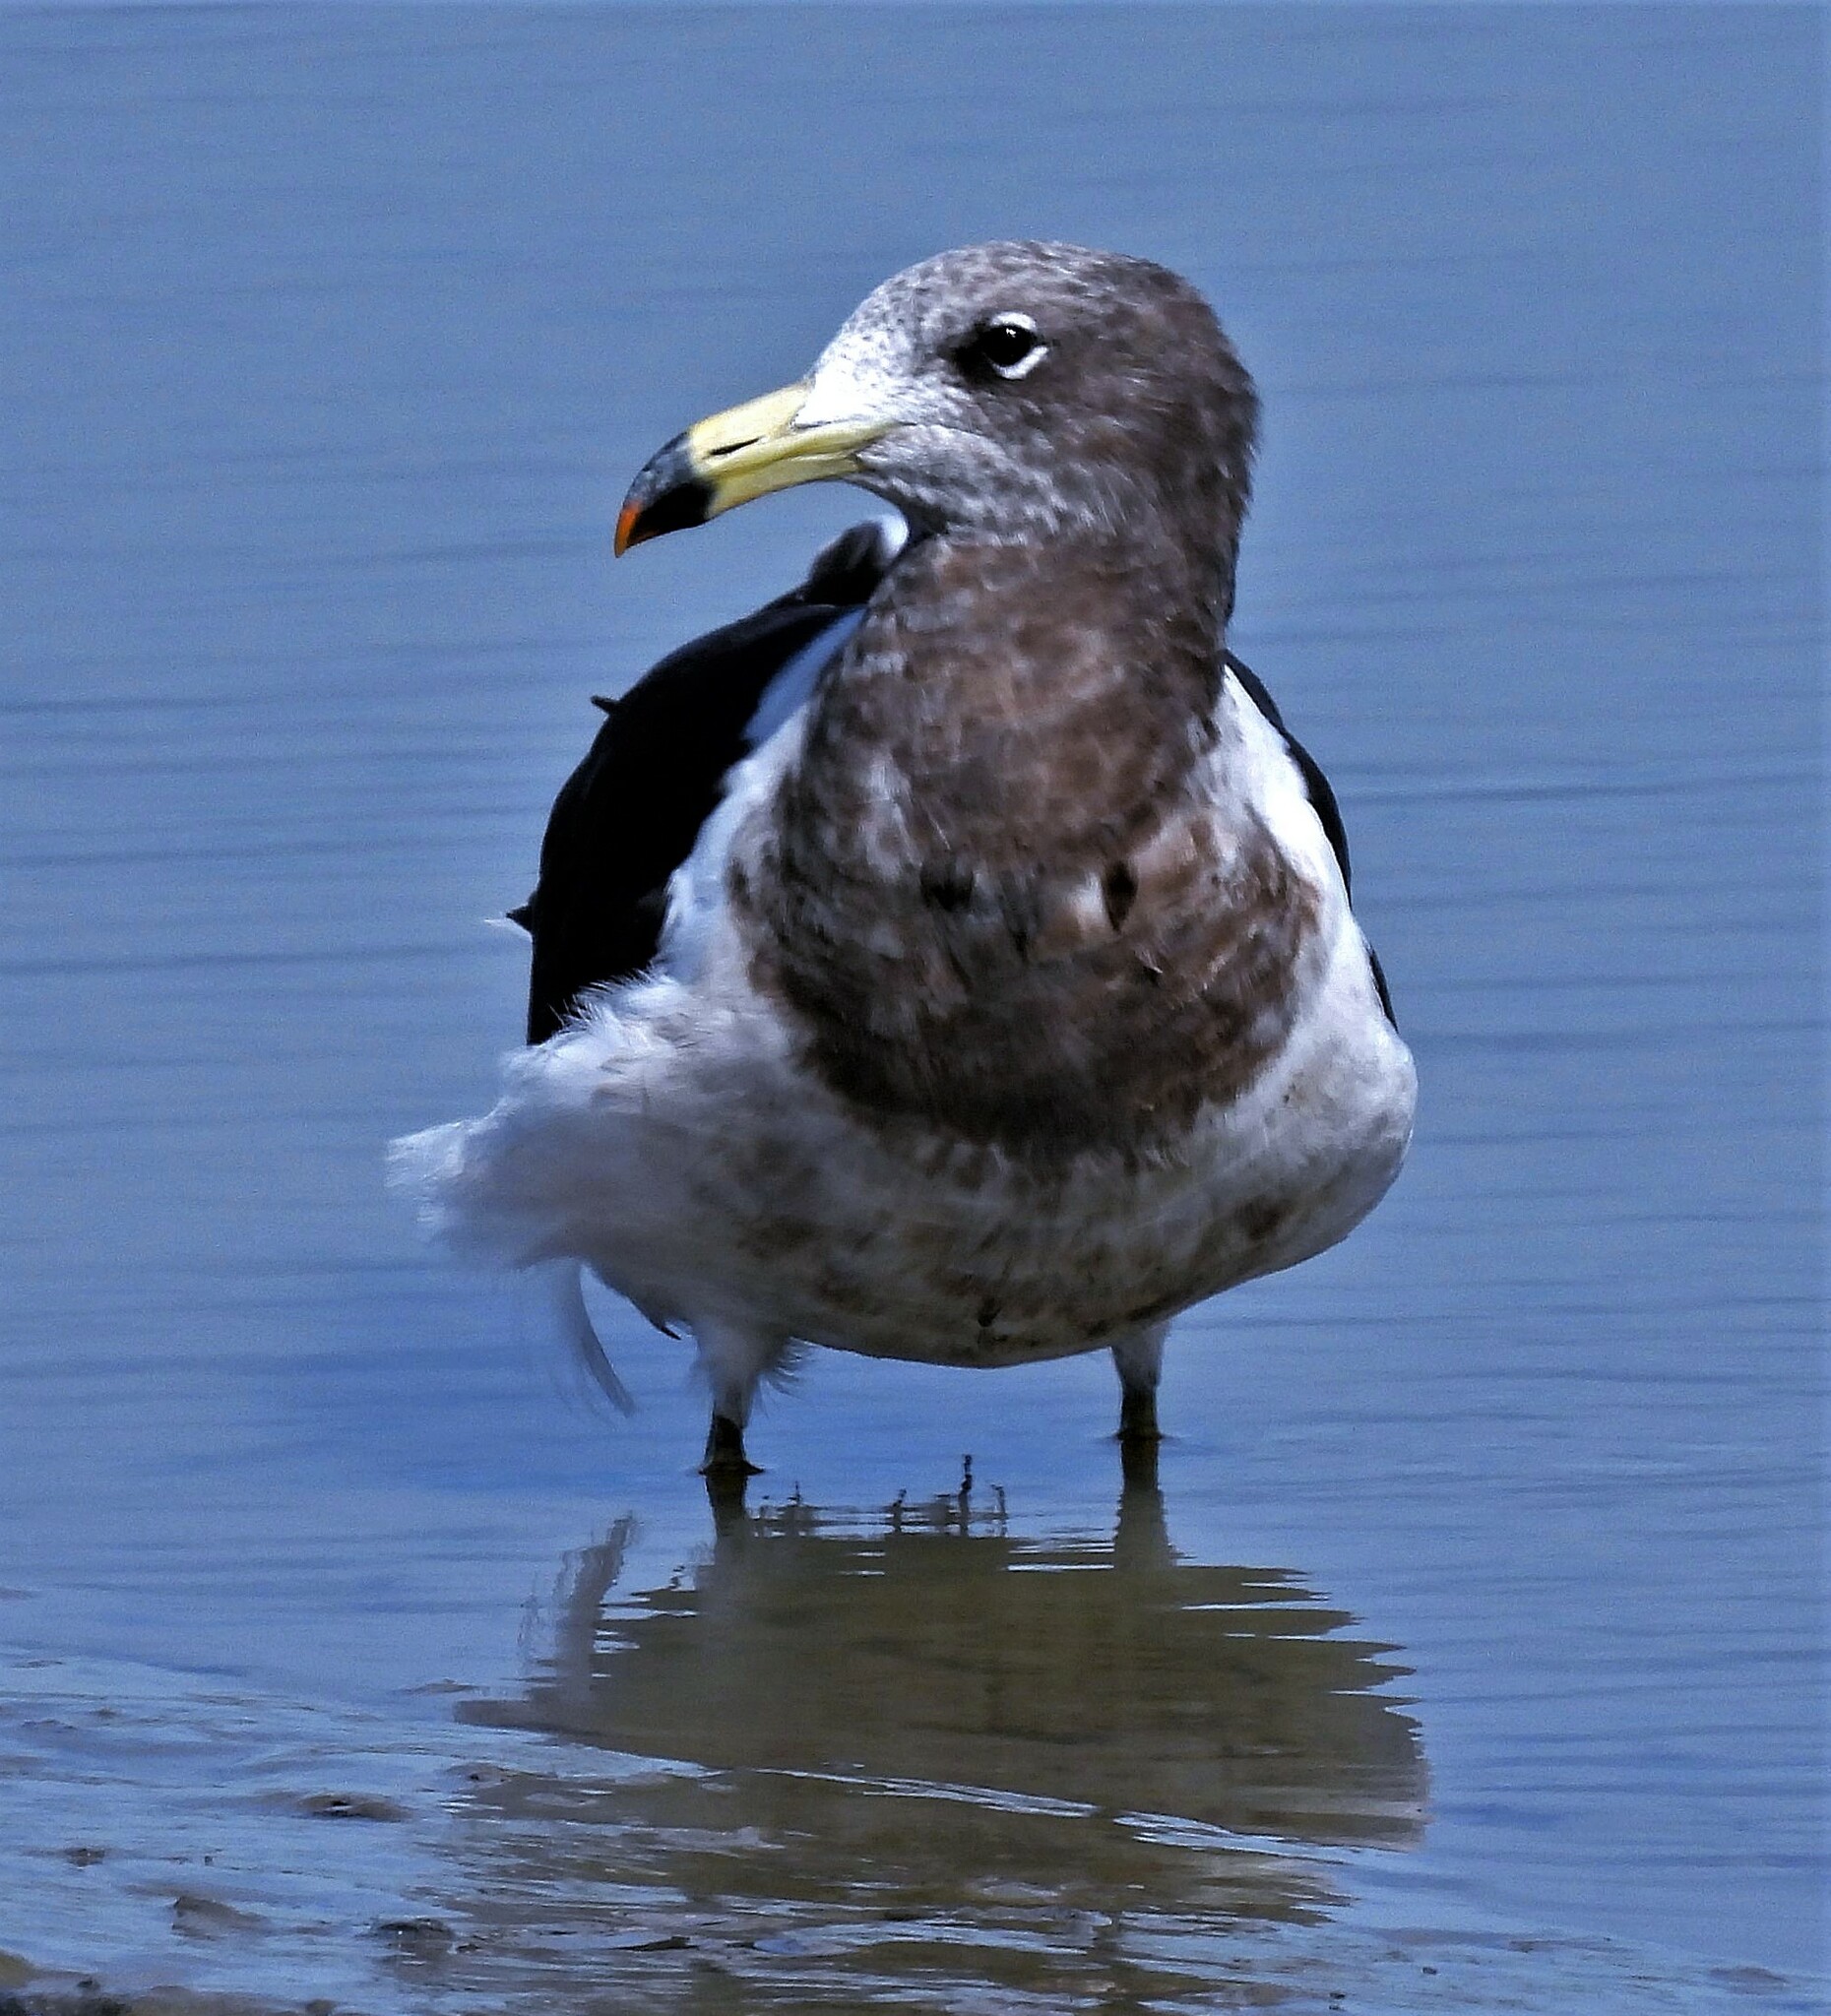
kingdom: Animalia
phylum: Chordata
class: Aves
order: Charadriiformes
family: Laridae
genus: Larus
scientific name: Larus atlanticus
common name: Olrog's gull
